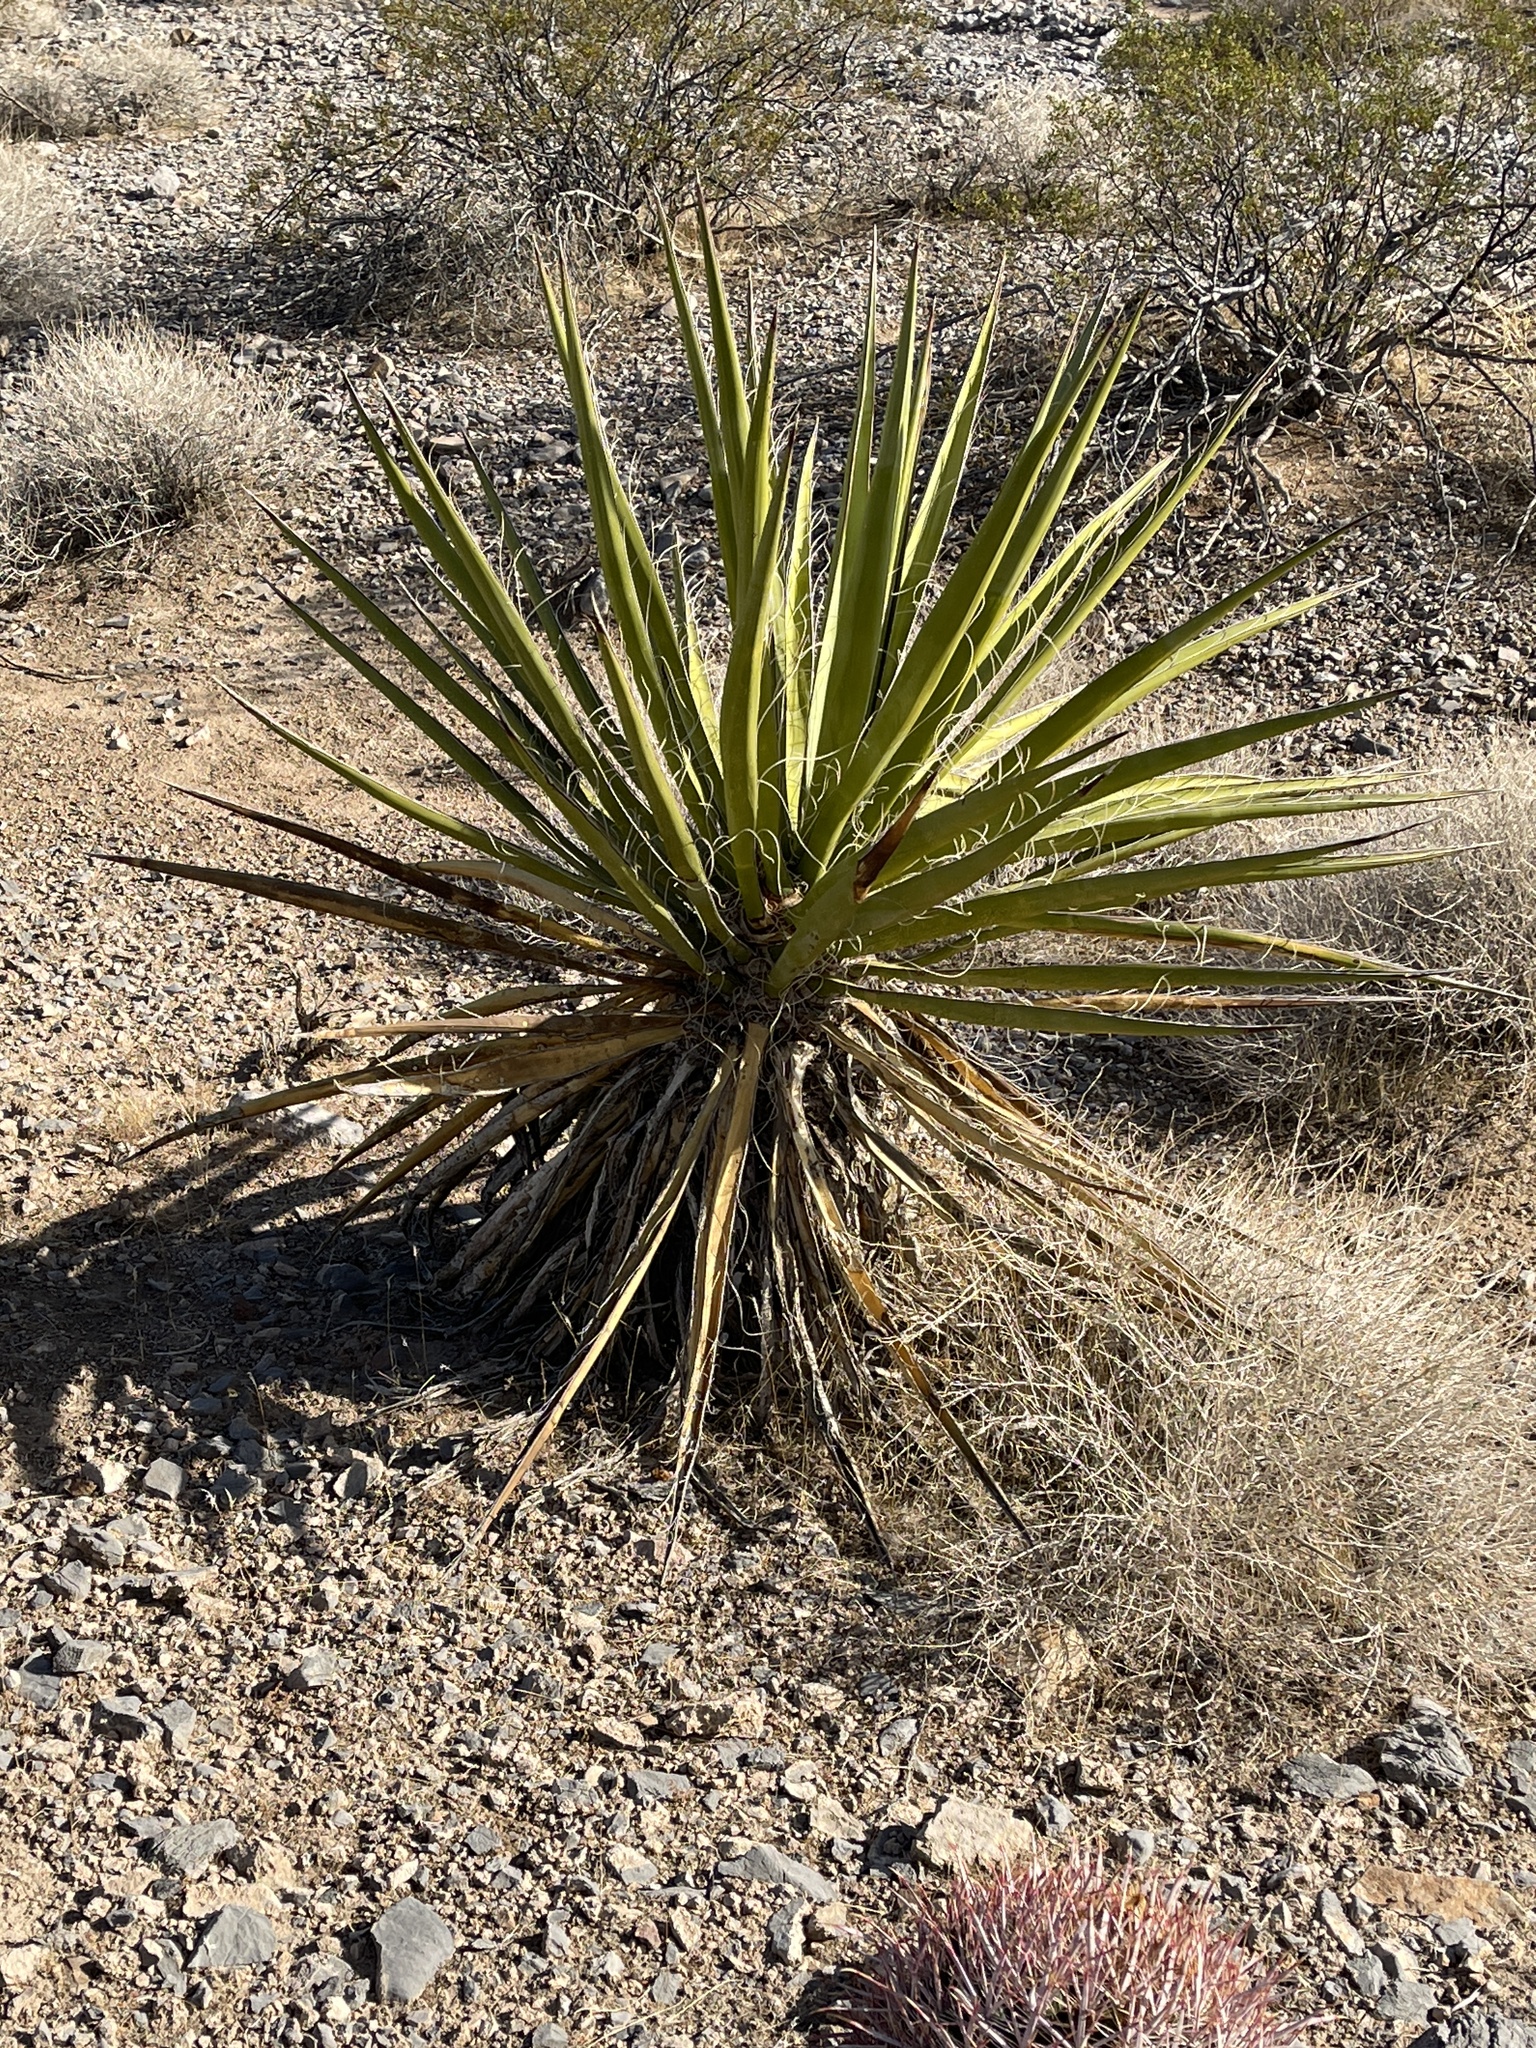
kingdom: Plantae
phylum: Tracheophyta
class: Liliopsida
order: Asparagales
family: Asparagaceae
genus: Yucca
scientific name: Yucca schidigera
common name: Mojave yucca
